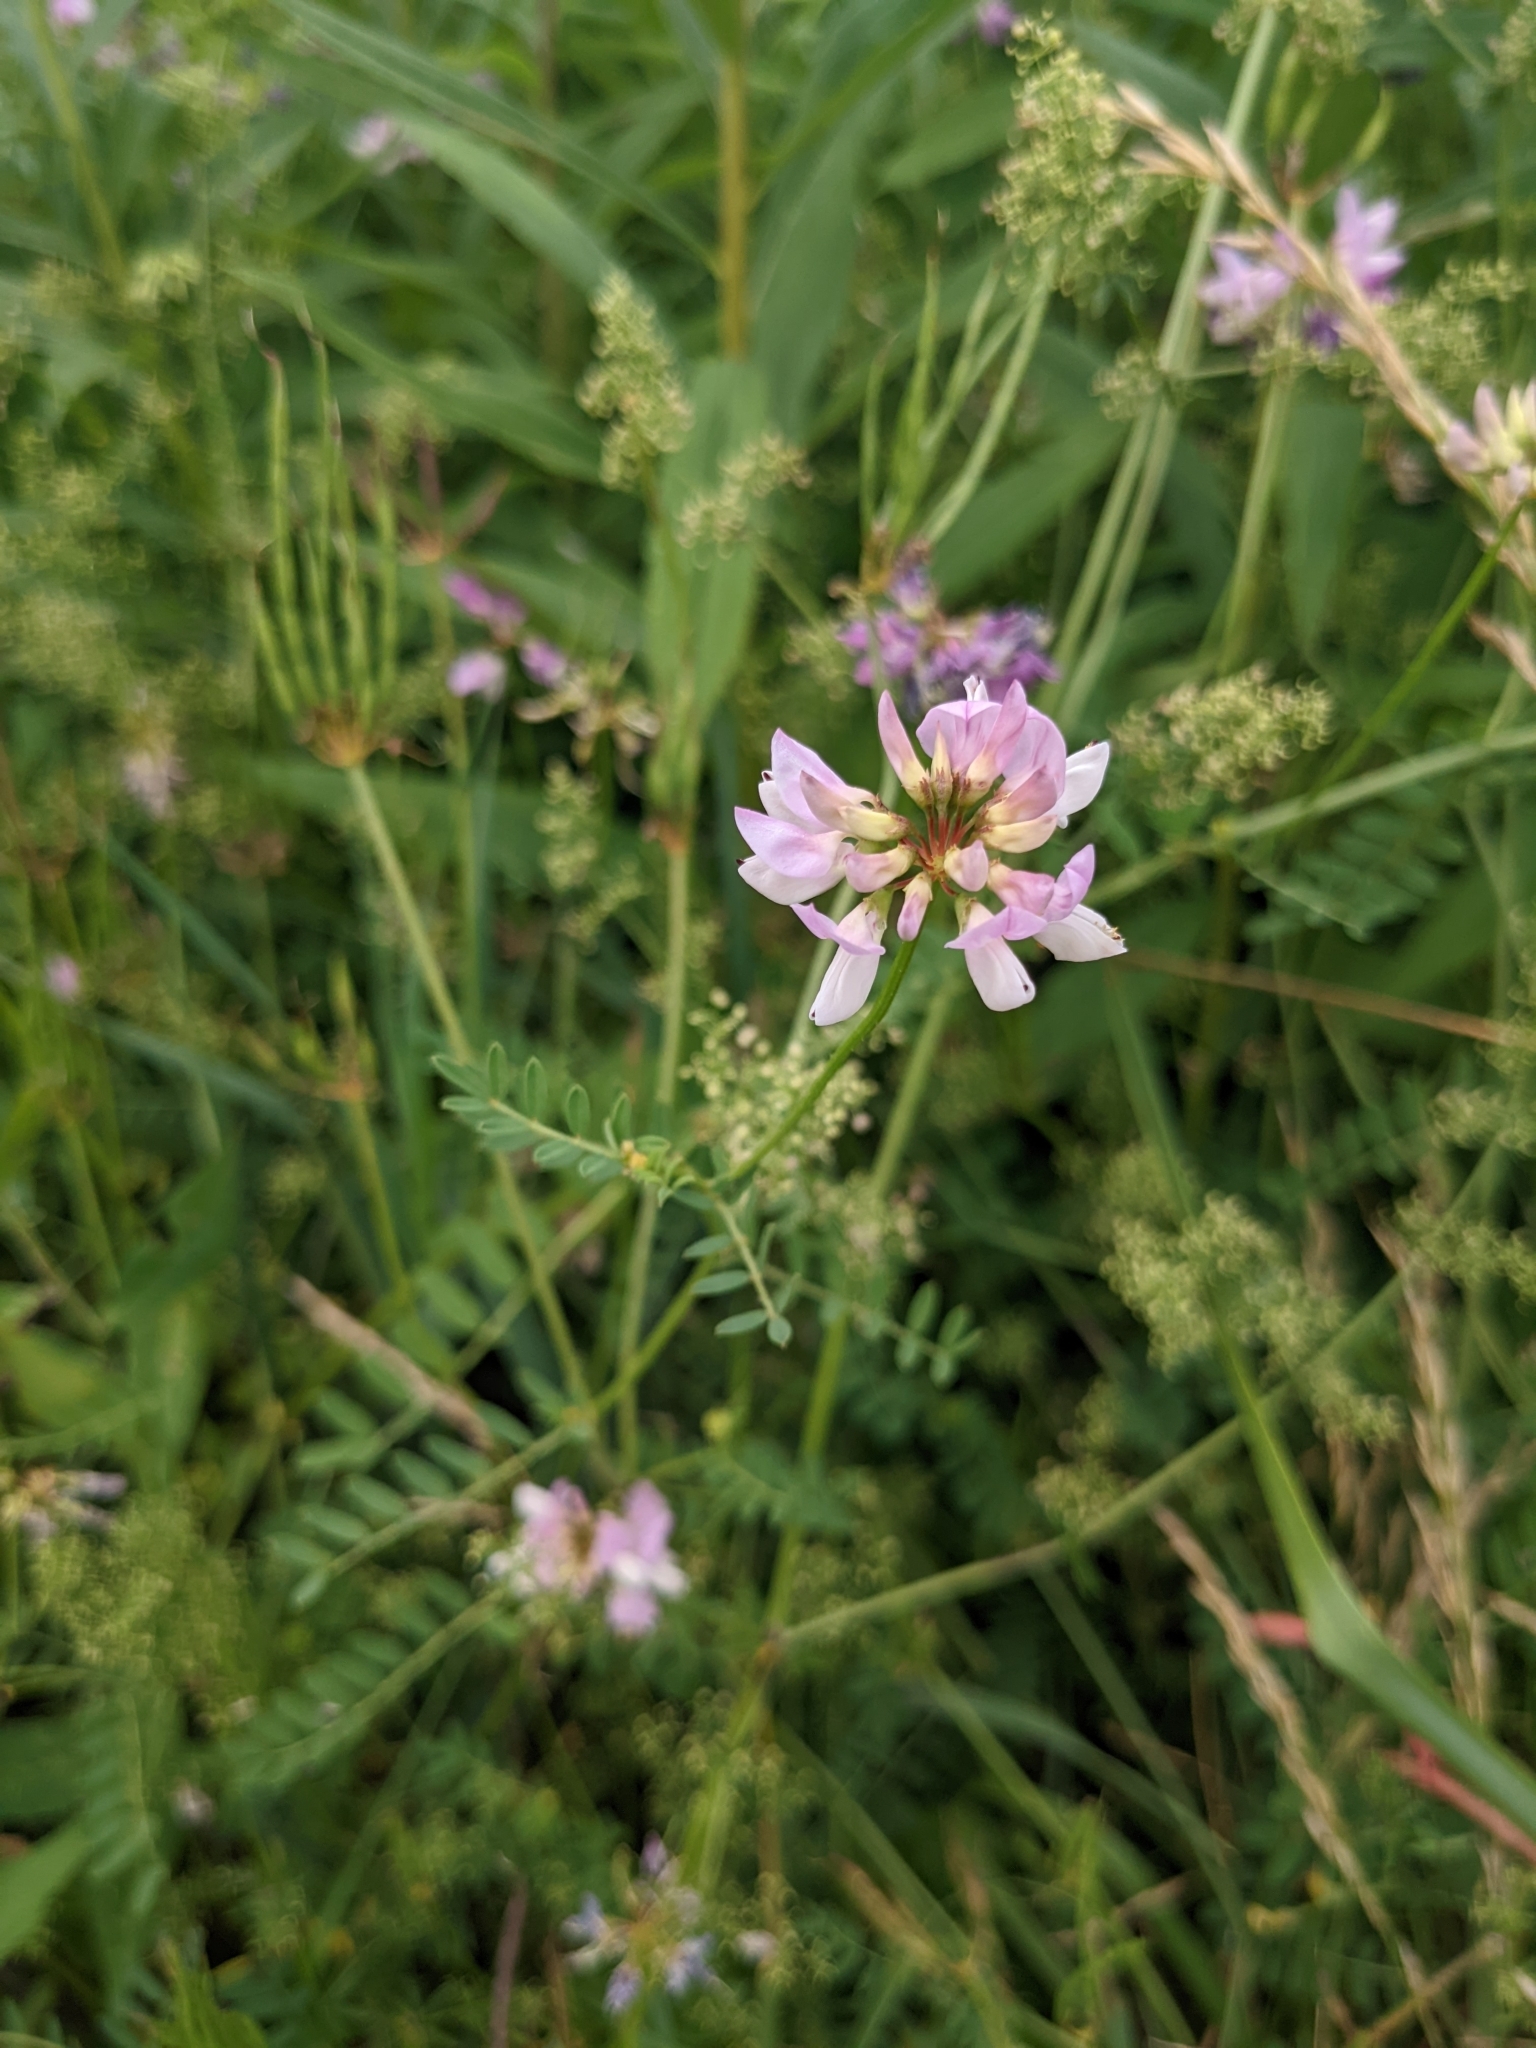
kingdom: Plantae
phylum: Tracheophyta
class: Magnoliopsida
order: Fabales
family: Fabaceae
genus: Coronilla
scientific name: Coronilla varia
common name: Crownvetch
